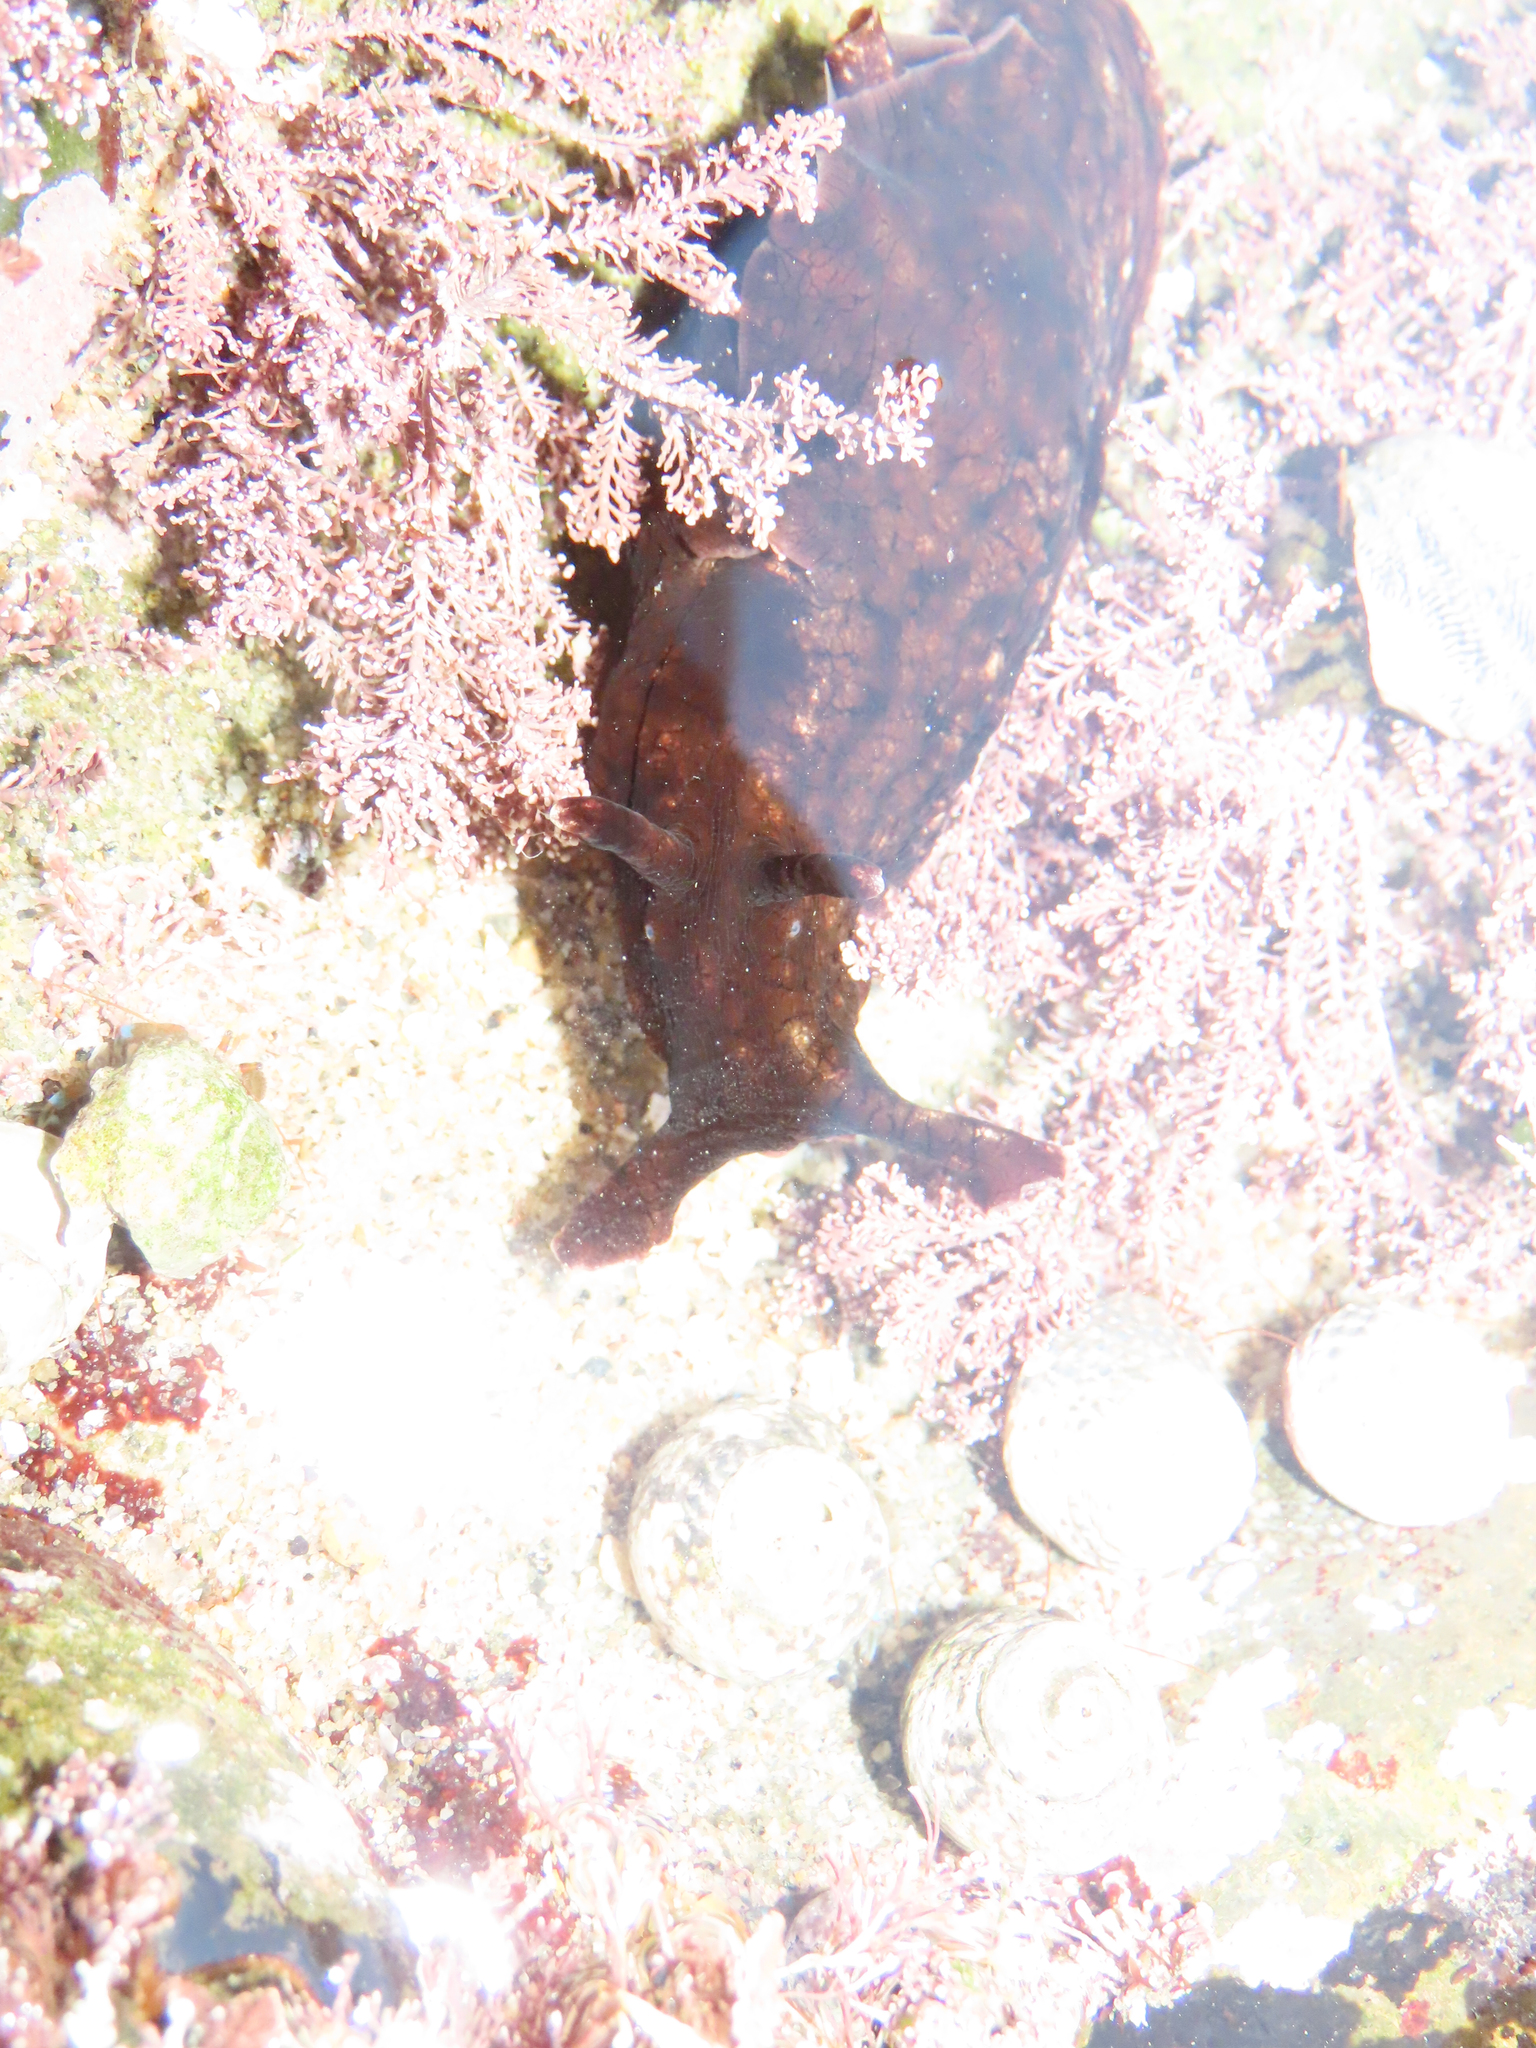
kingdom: Animalia
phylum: Mollusca
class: Gastropoda
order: Aplysiida
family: Aplysiidae
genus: Aplysia
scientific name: Aplysia californica
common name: California seahare
